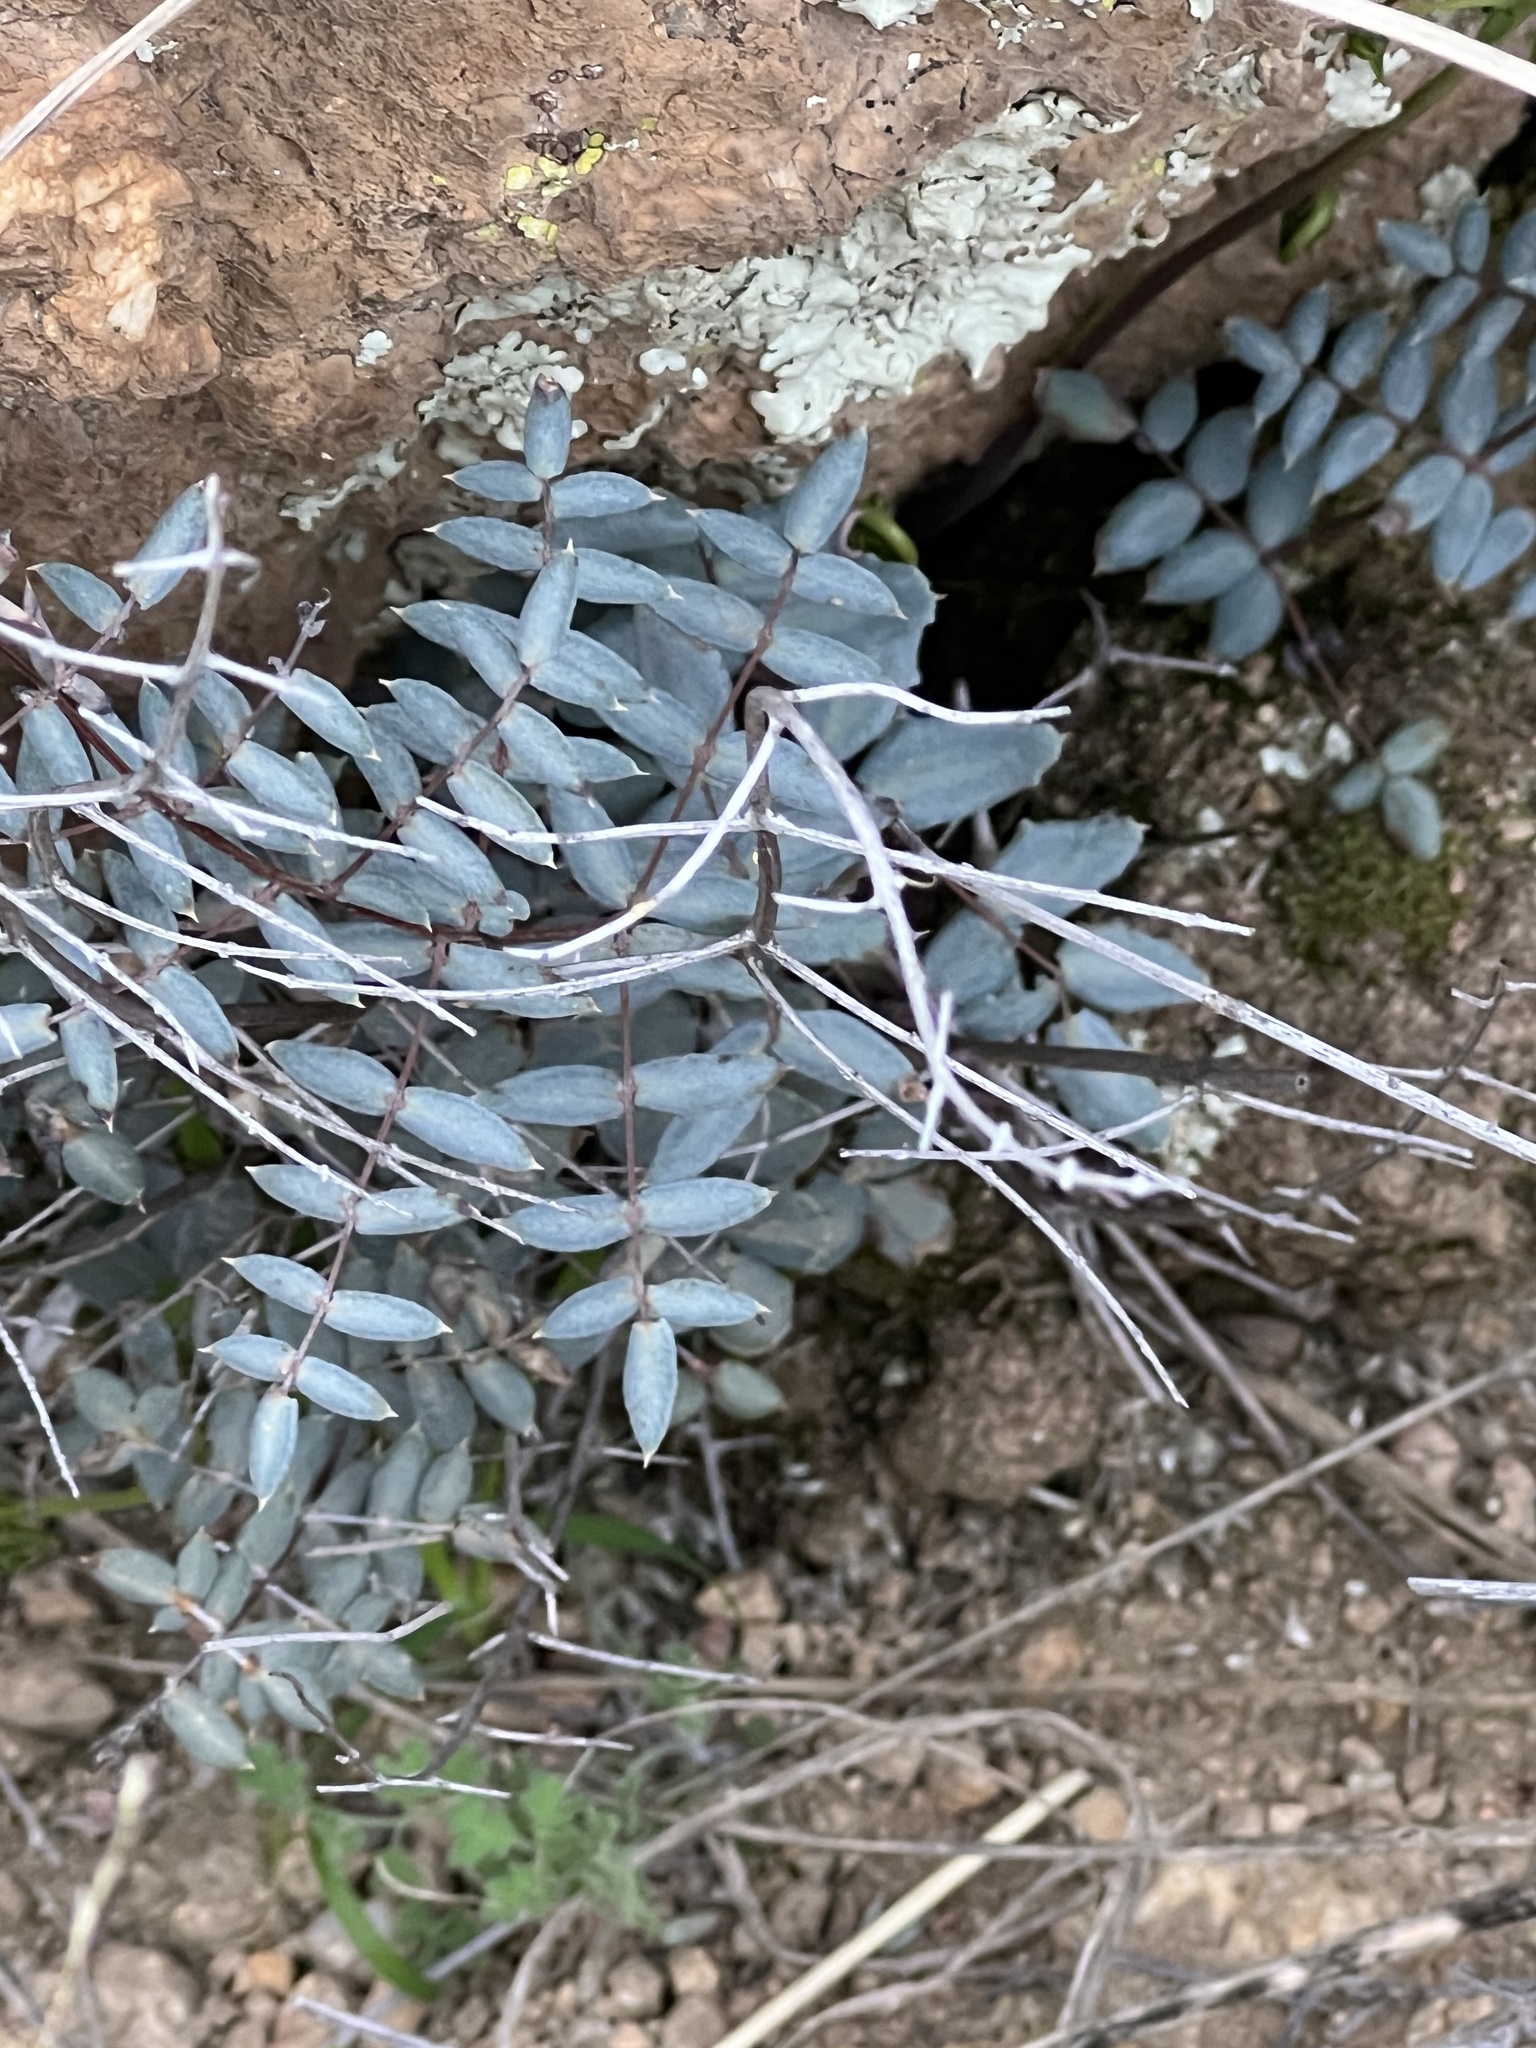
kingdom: Plantae
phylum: Tracheophyta
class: Polypodiopsida
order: Polypodiales
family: Pteridaceae
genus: Pellaea
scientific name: Pellaea truncata
